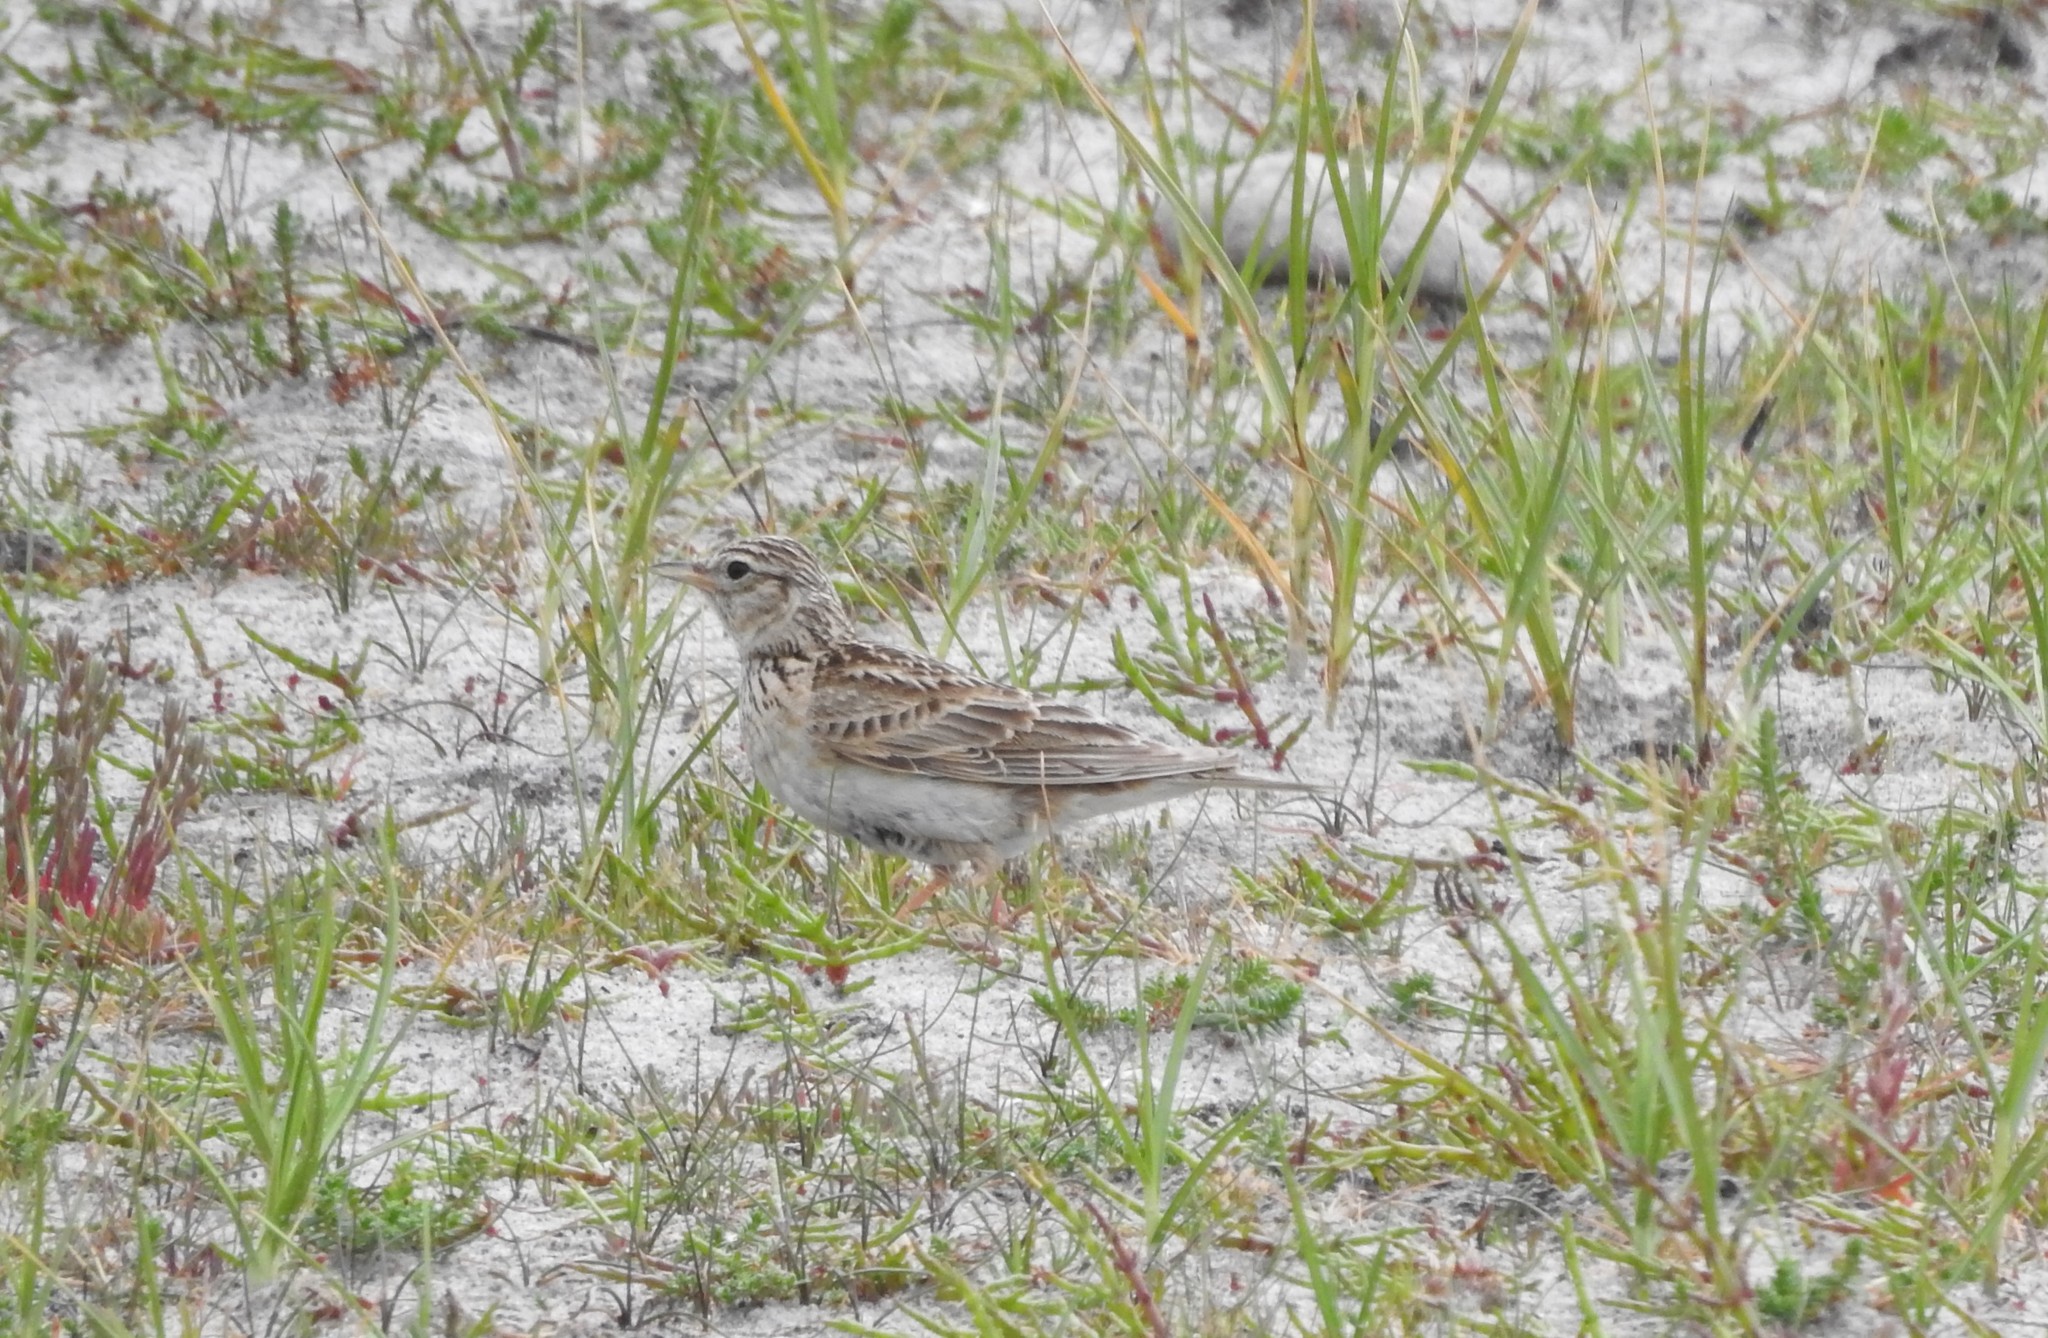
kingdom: Animalia
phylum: Chordata
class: Aves
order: Passeriformes
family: Alaudidae
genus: Alauda
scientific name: Alauda arvensis
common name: Eurasian skylark
